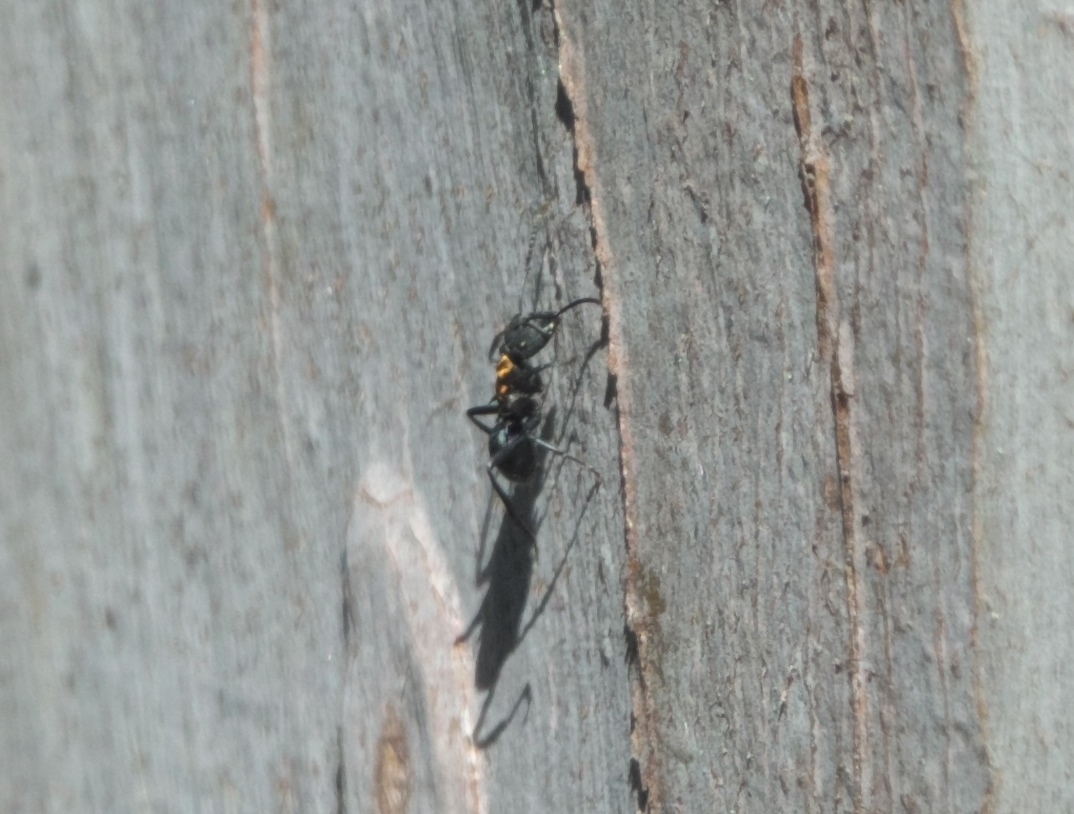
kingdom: Animalia
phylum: Arthropoda
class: Insecta
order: Hymenoptera
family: Formicidae
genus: Polyrhachis
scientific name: Polyrhachis ornata
